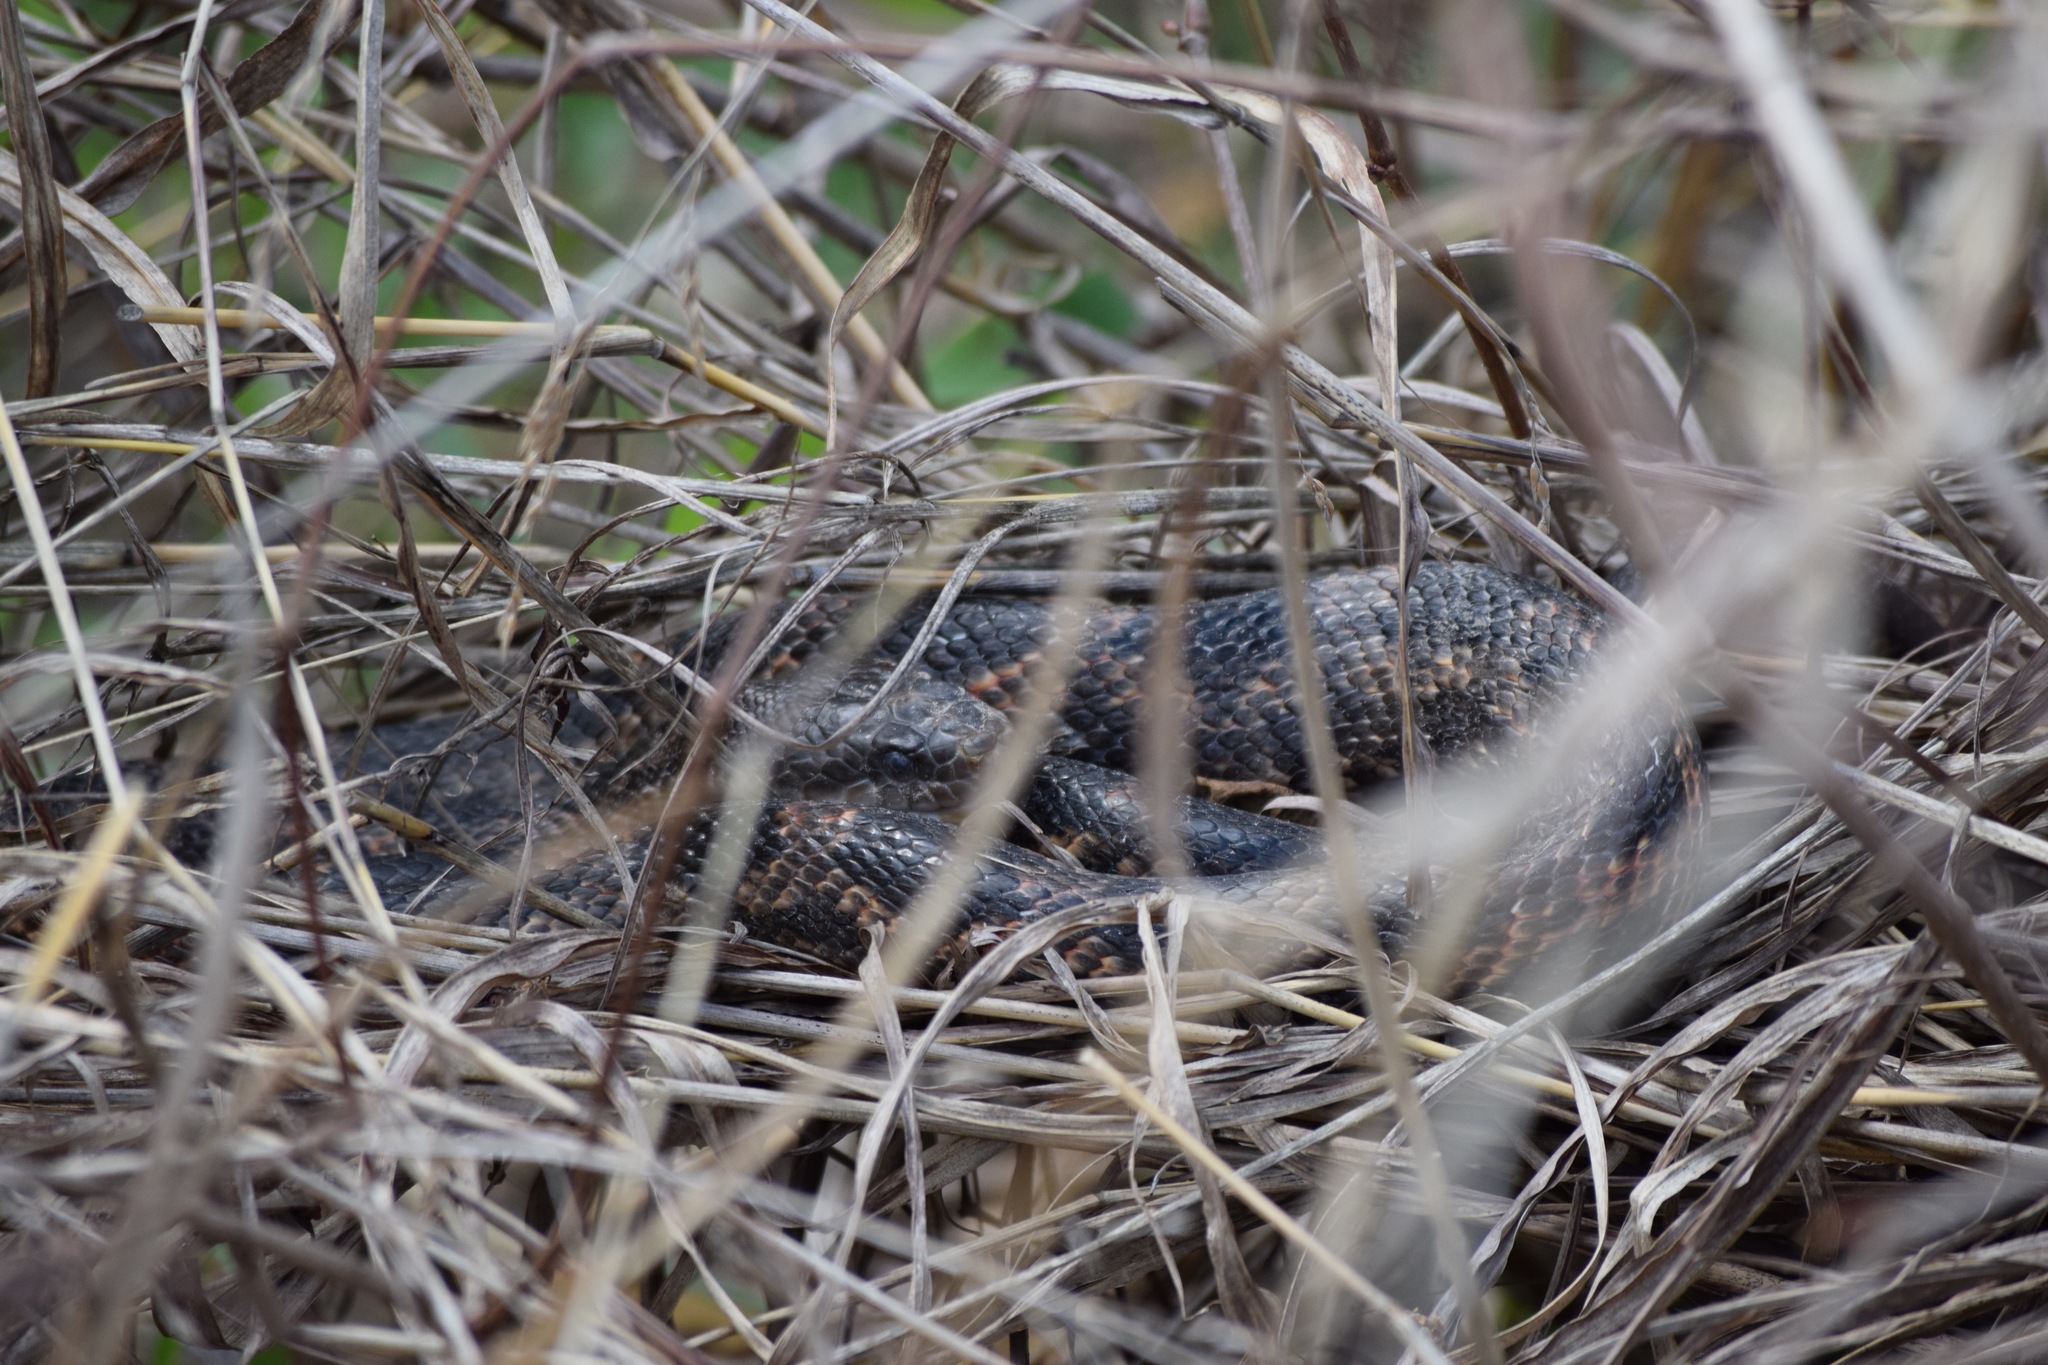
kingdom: Animalia
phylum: Chordata
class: Squamata
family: Colubridae
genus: Pantherophis
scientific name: Pantherophis obsoletus
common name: Black rat snake
